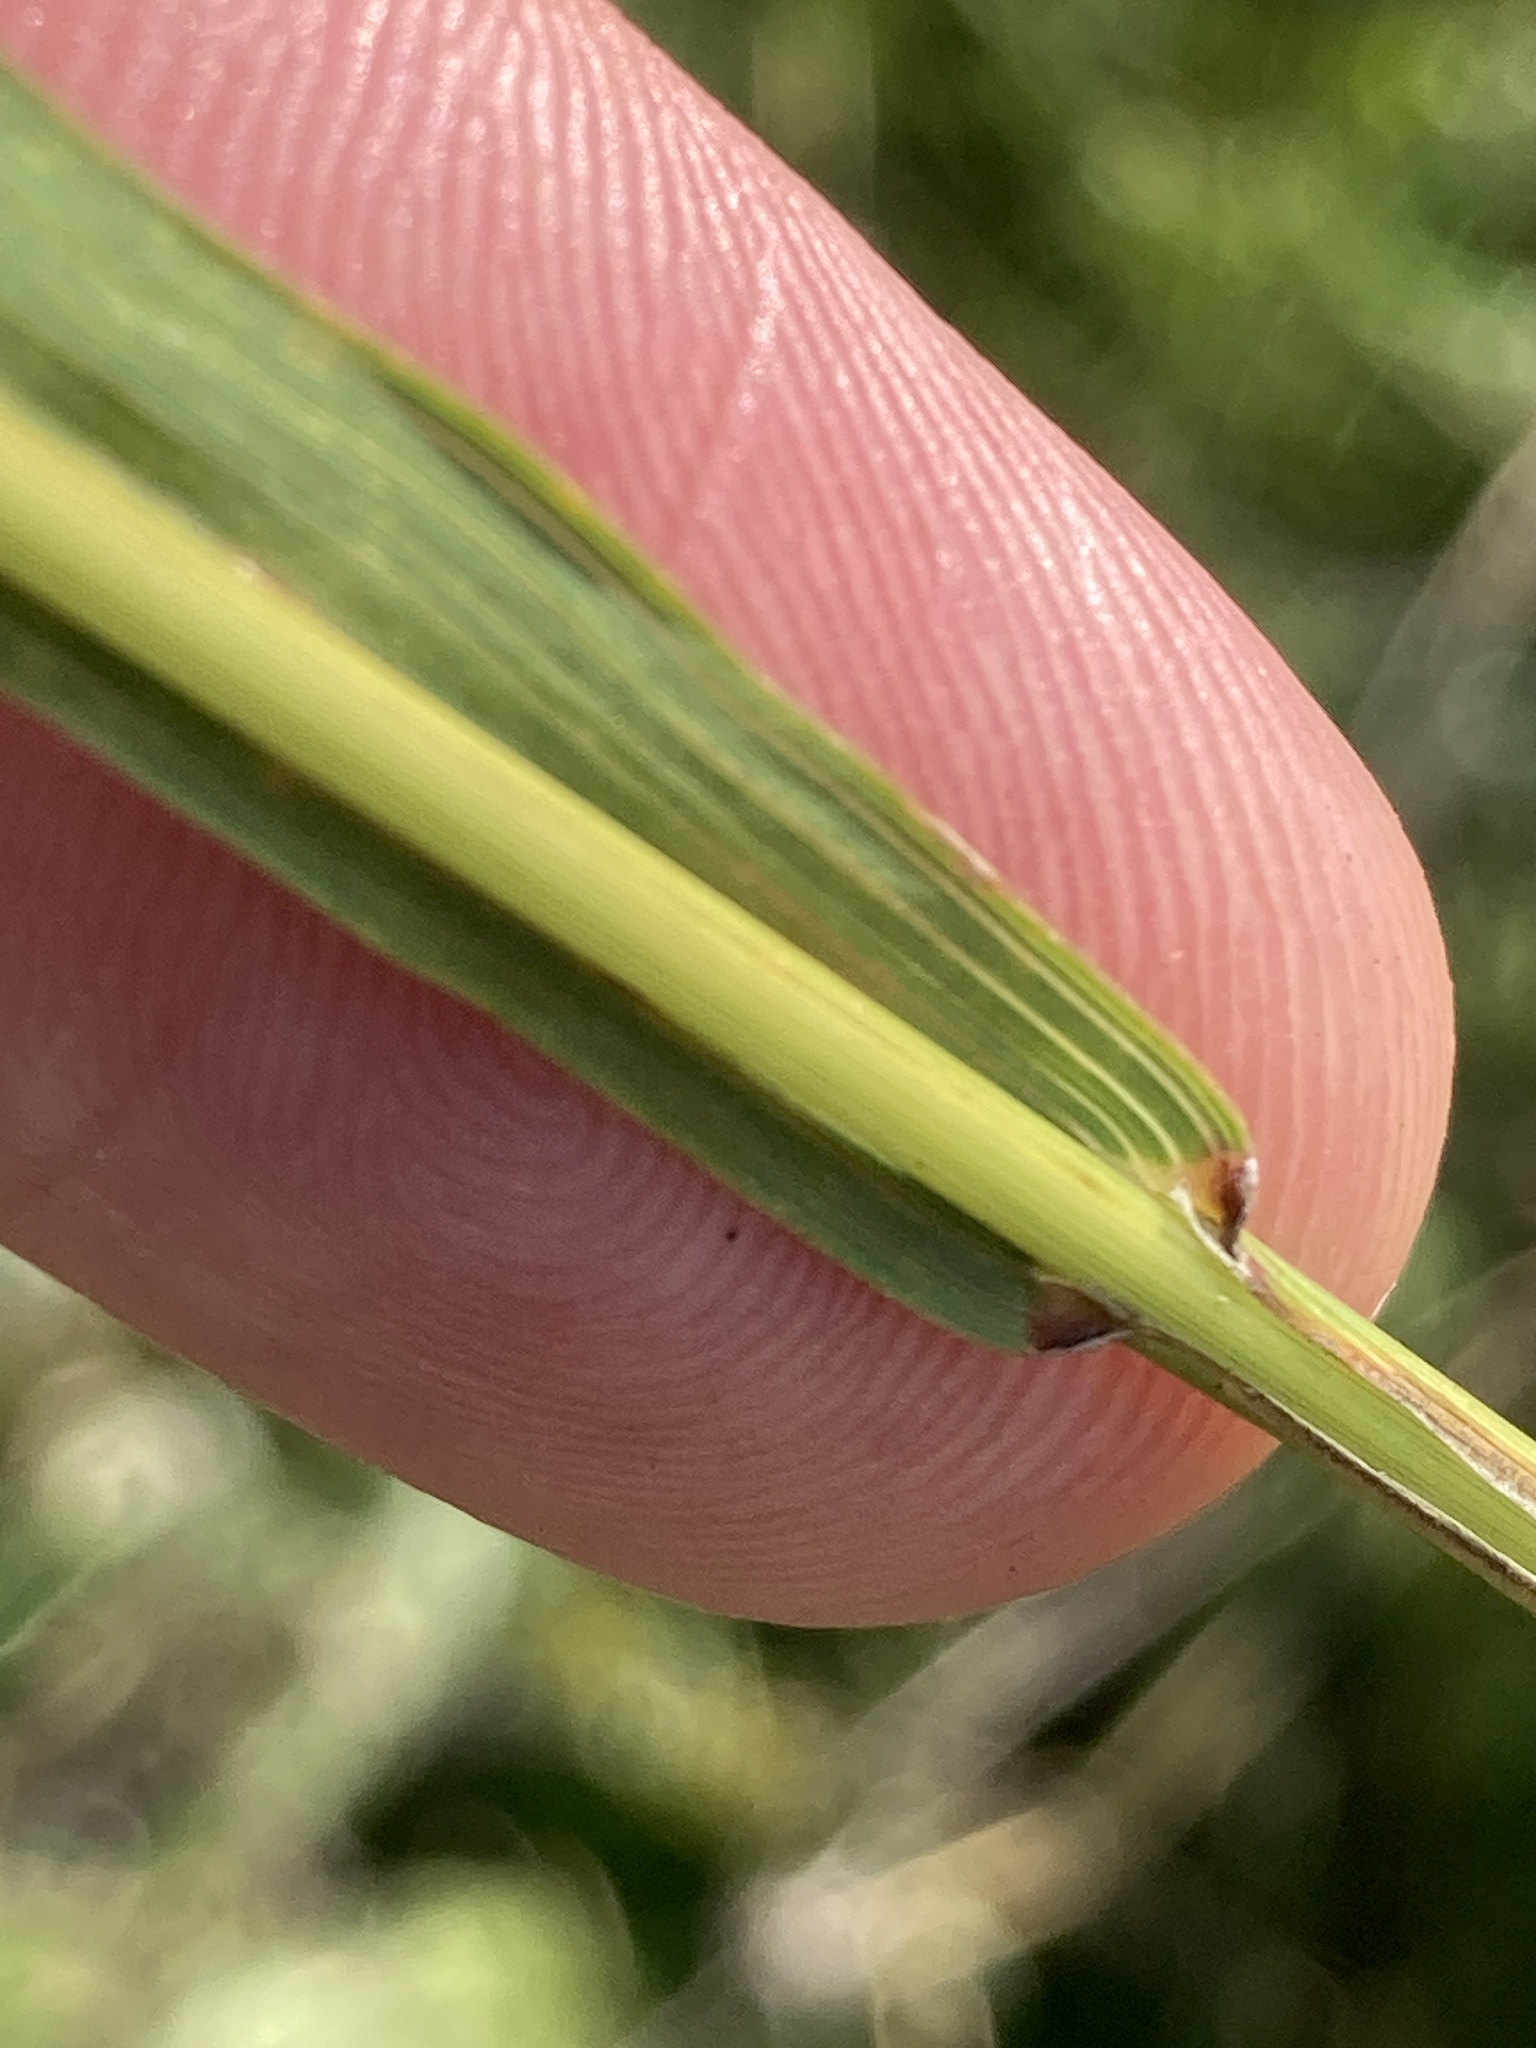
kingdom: Plantae
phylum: Tracheophyta
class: Liliopsida
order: Poales
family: Poaceae
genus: Bromus
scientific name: Bromus inermis
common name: Smooth brome
